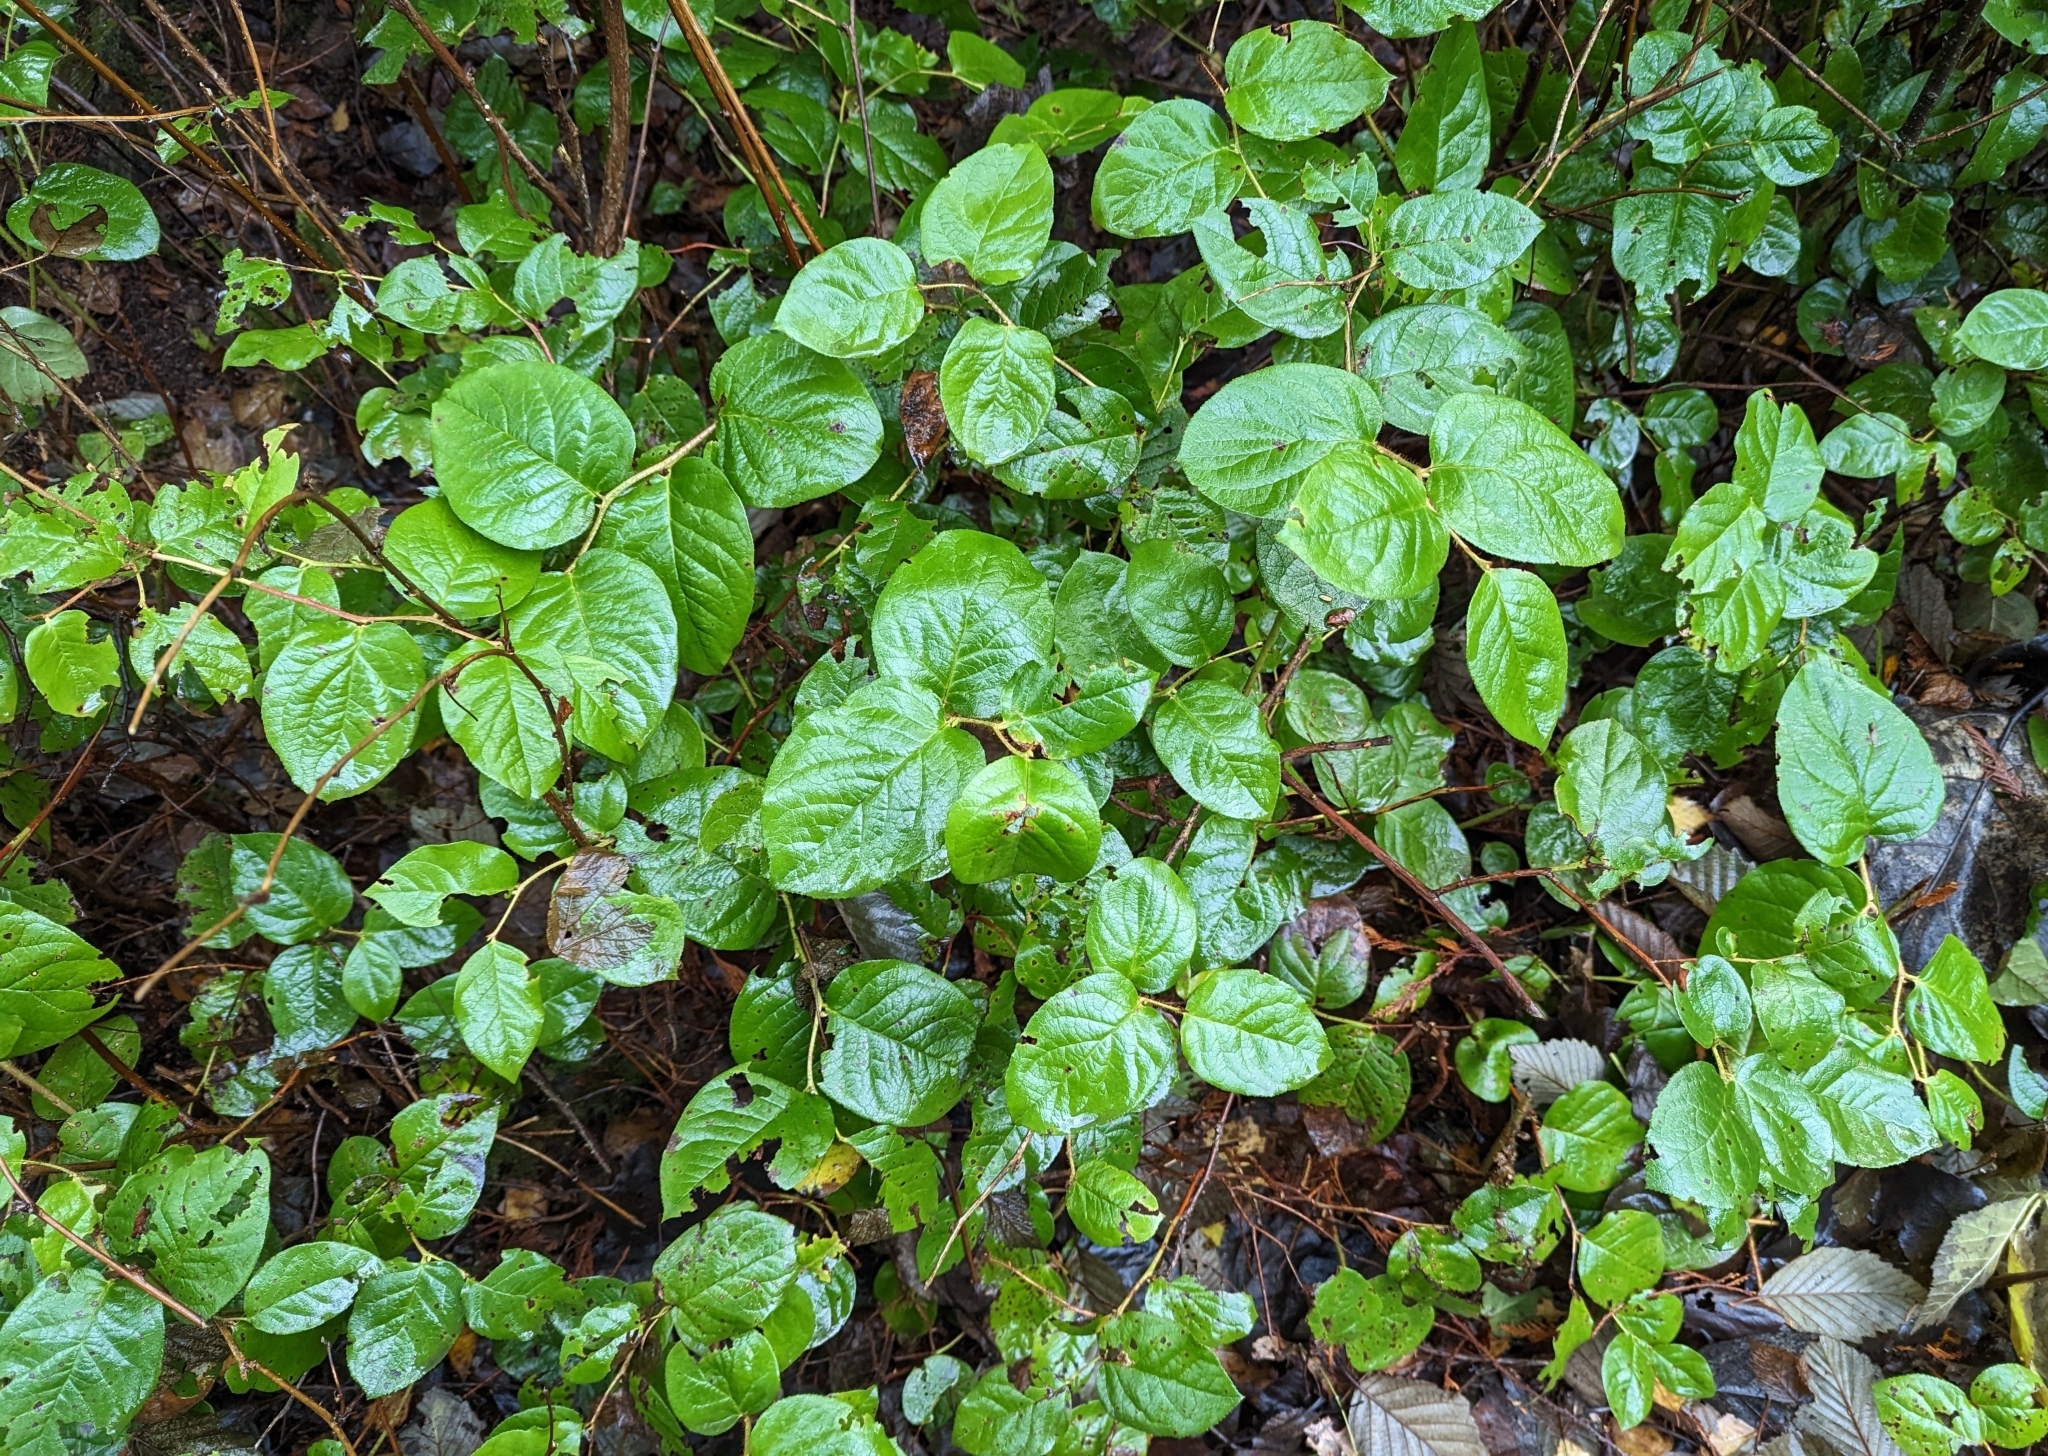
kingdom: Plantae
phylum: Tracheophyta
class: Magnoliopsida
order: Ericales
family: Ericaceae
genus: Gaultheria
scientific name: Gaultheria shallon
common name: Shallon
